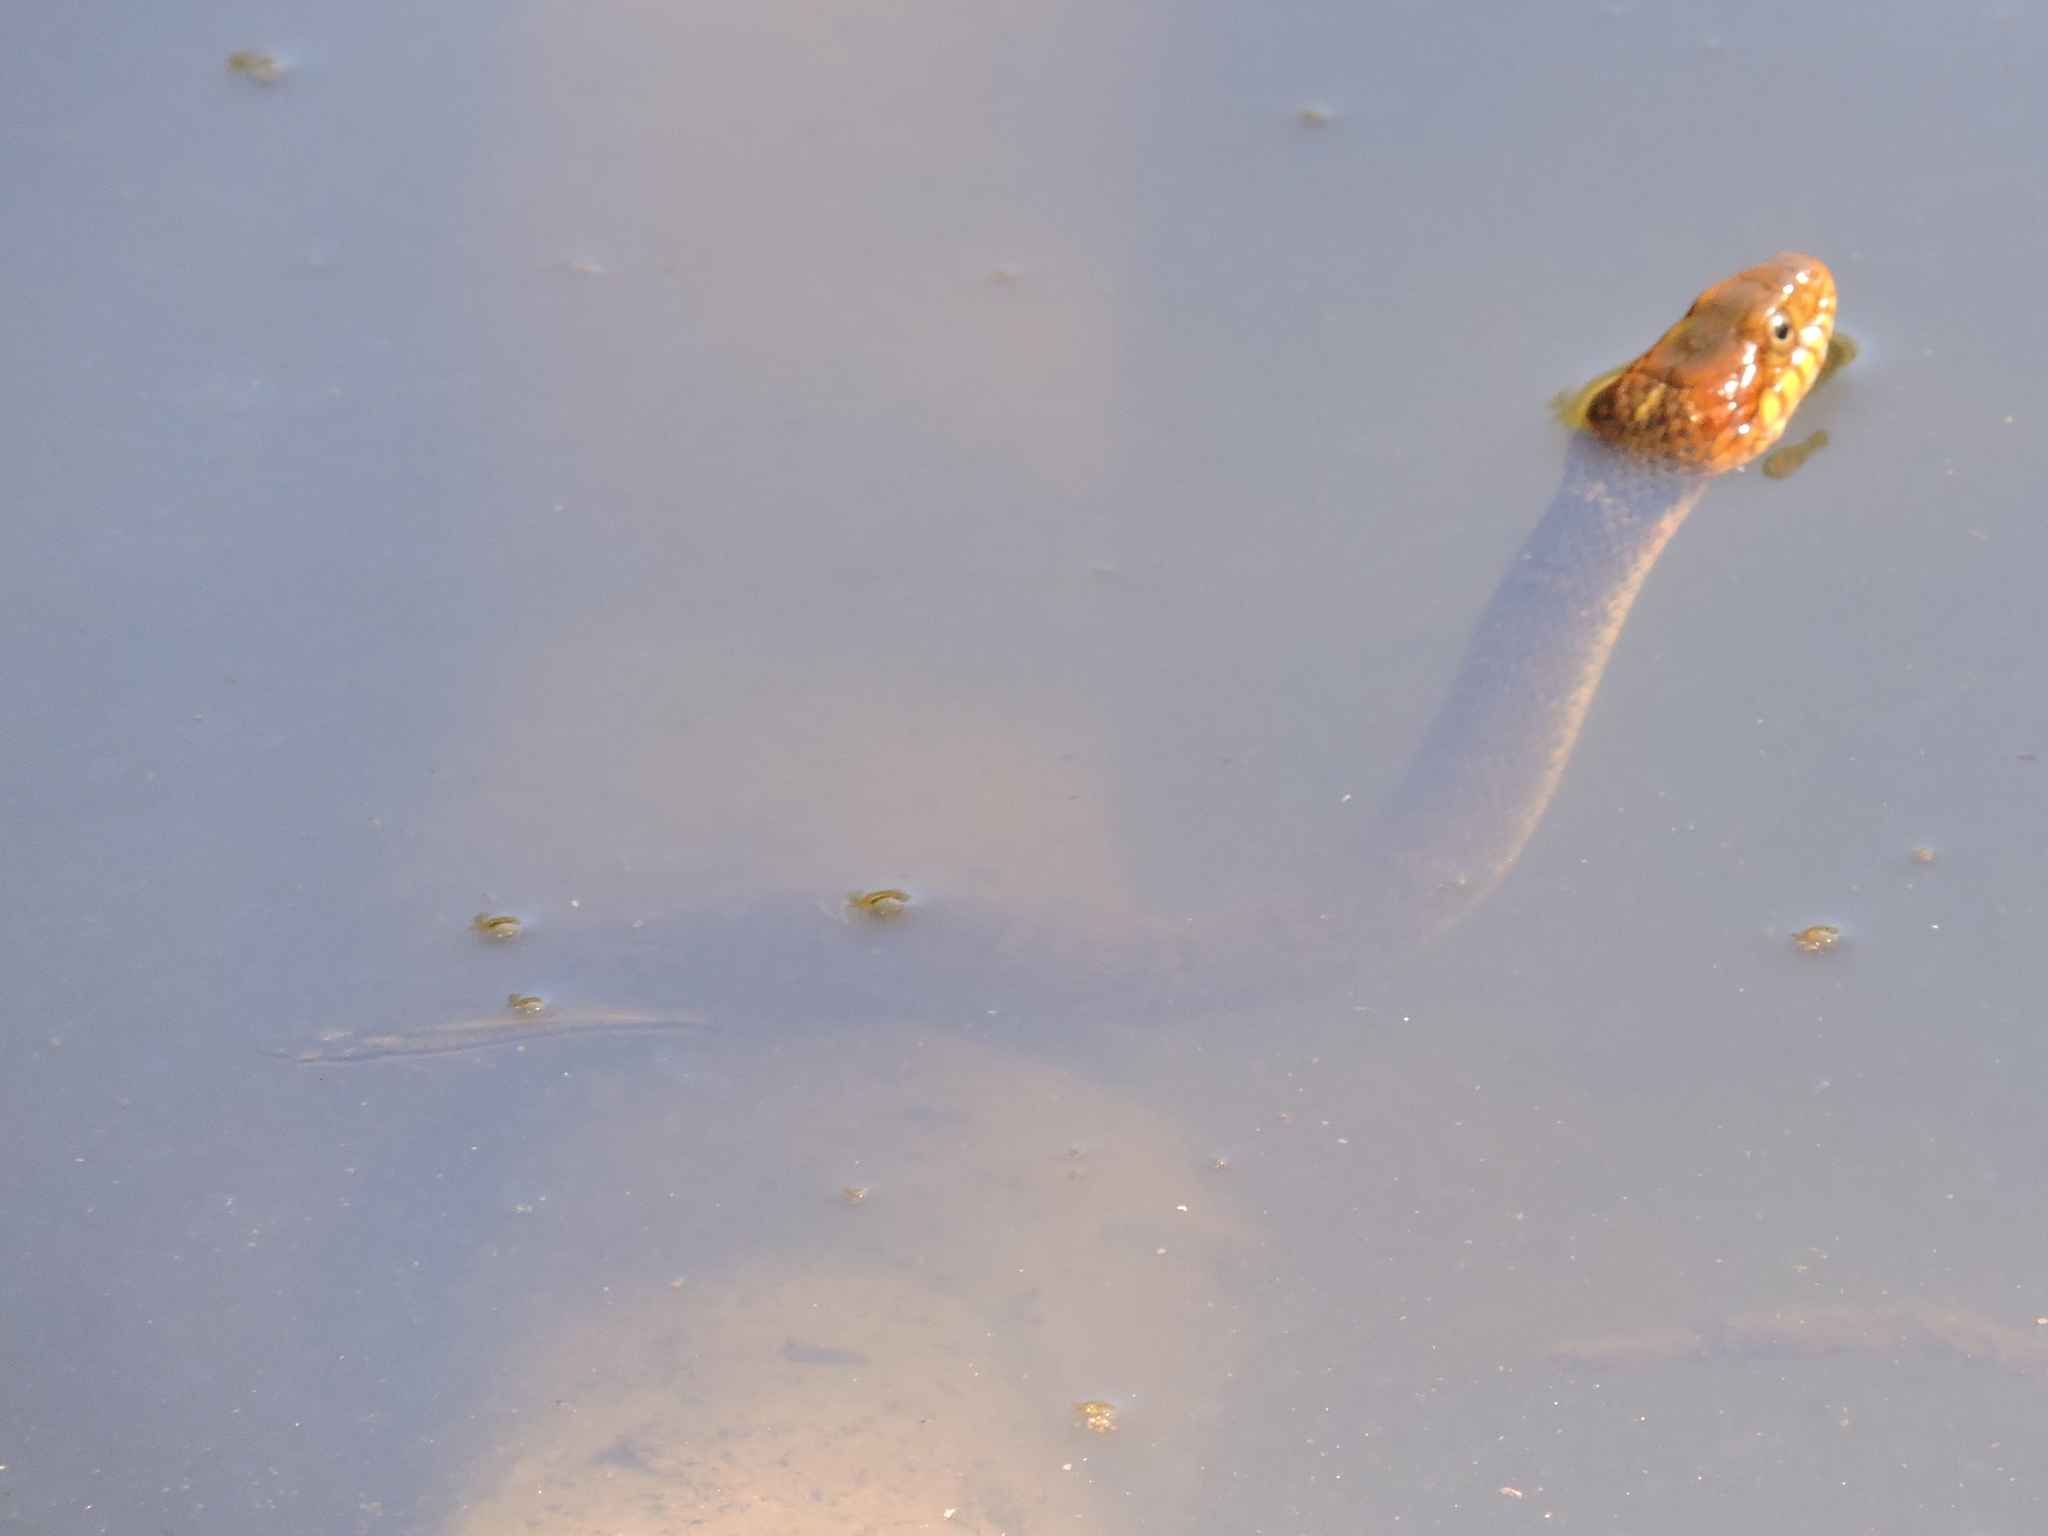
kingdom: Animalia
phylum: Chordata
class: Squamata
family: Colubridae
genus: Nerodia
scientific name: Nerodia erythrogaster
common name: Plainbelly water snake
